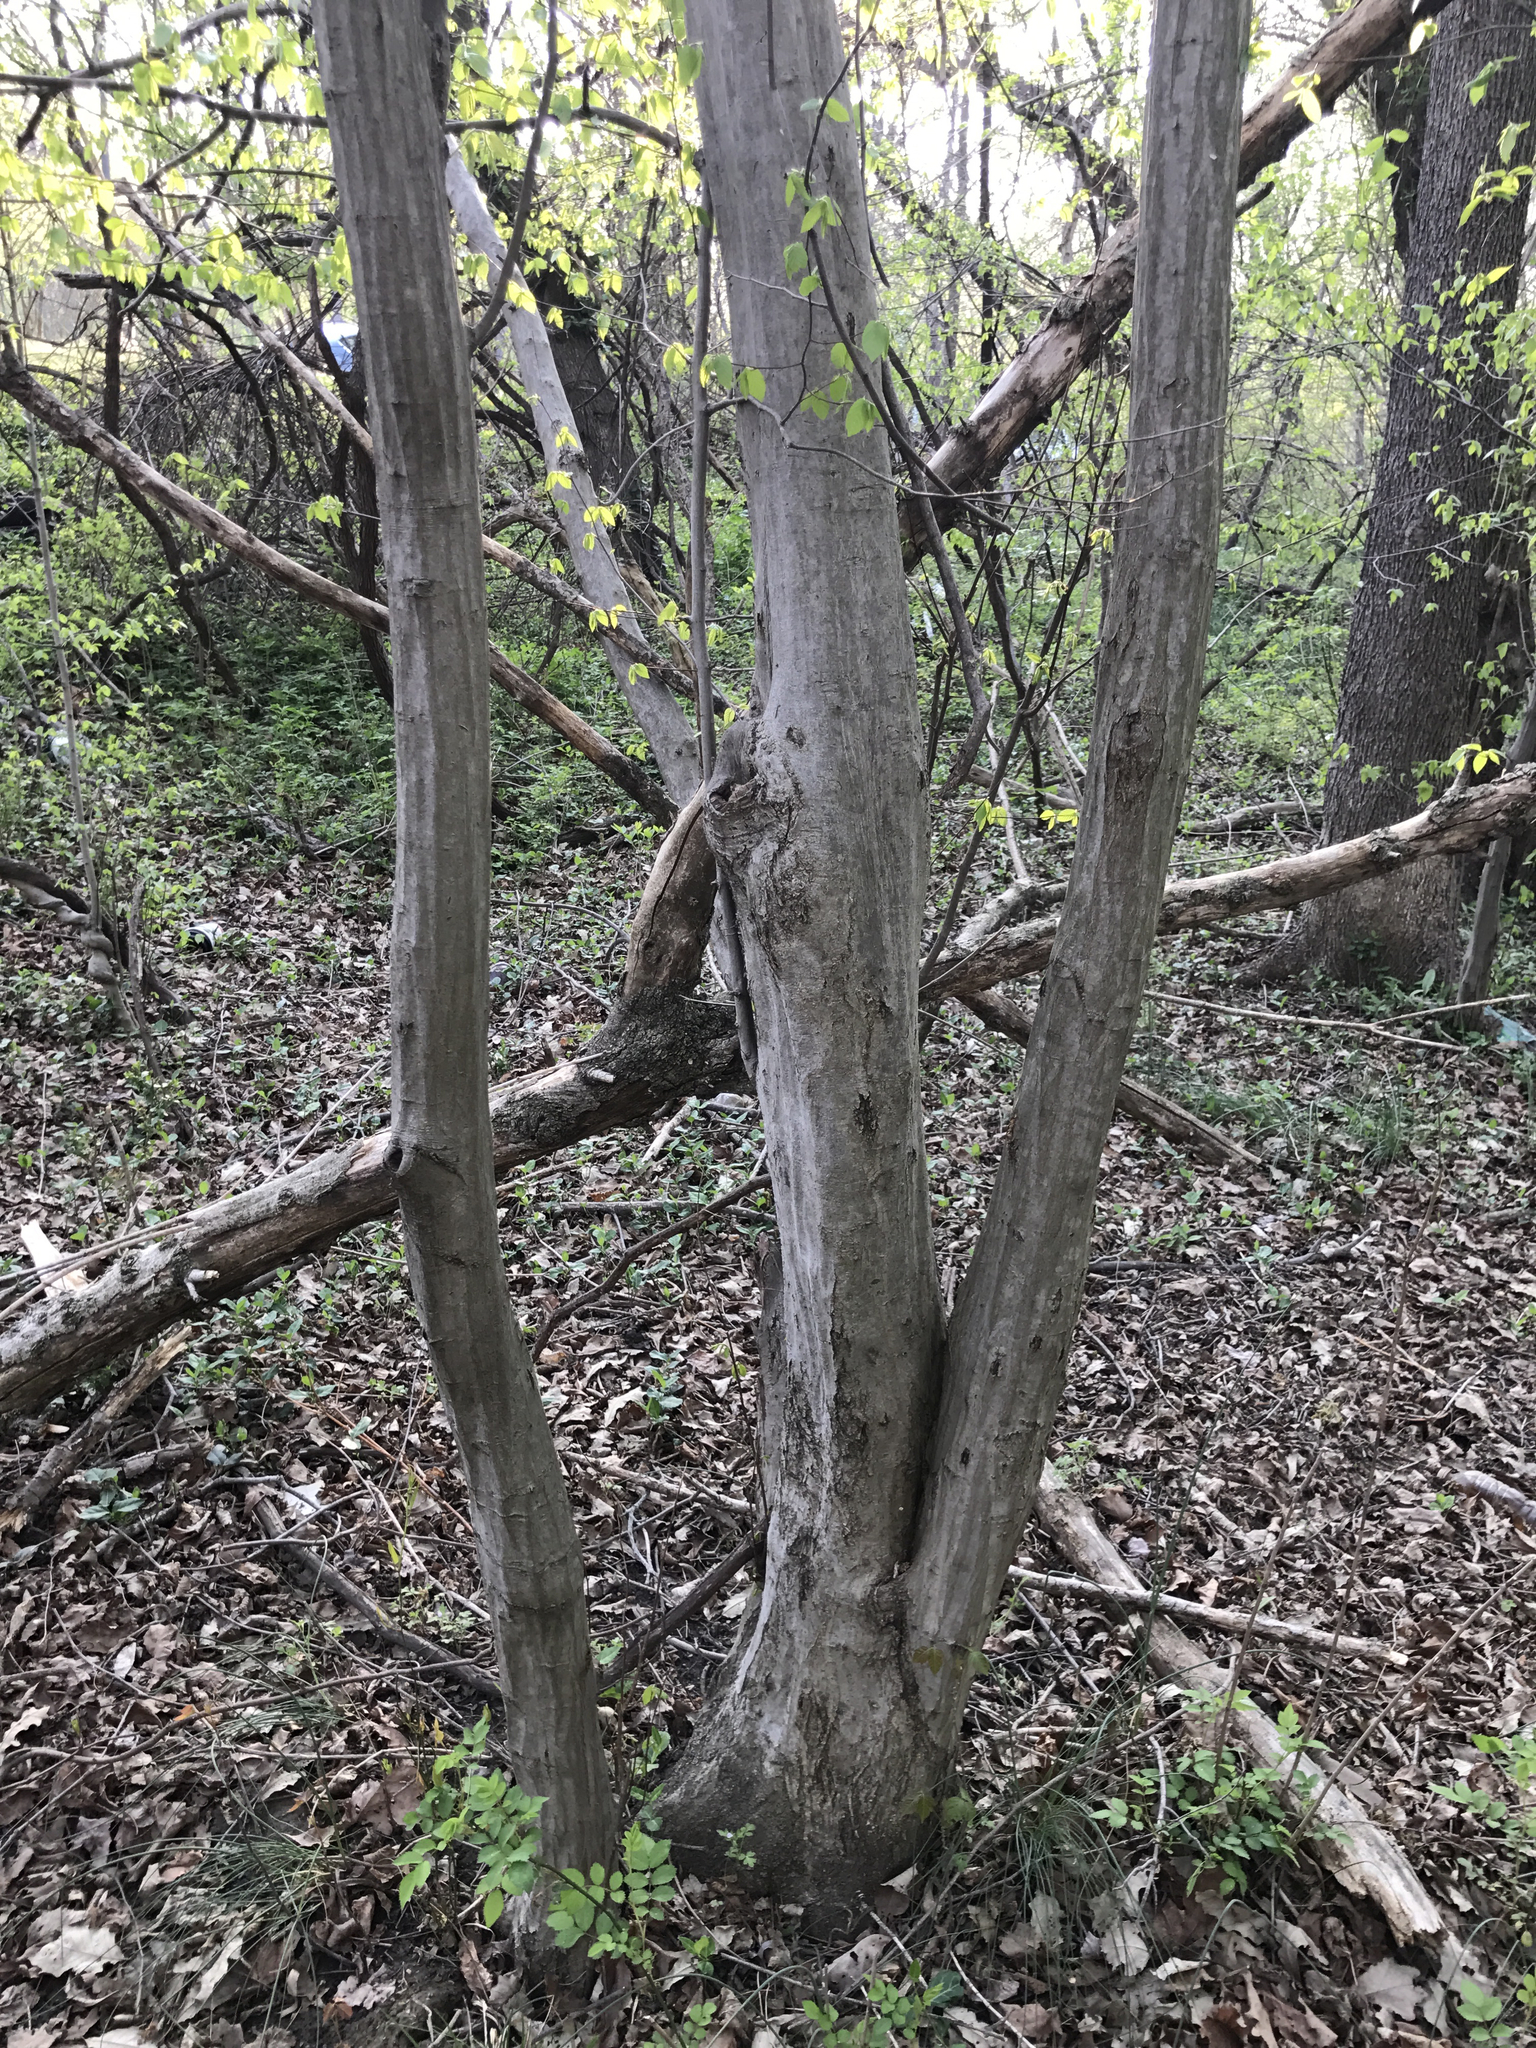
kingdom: Plantae
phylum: Tracheophyta
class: Magnoliopsida
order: Fagales
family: Betulaceae
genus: Carpinus
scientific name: Carpinus caroliniana
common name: American hornbeam
